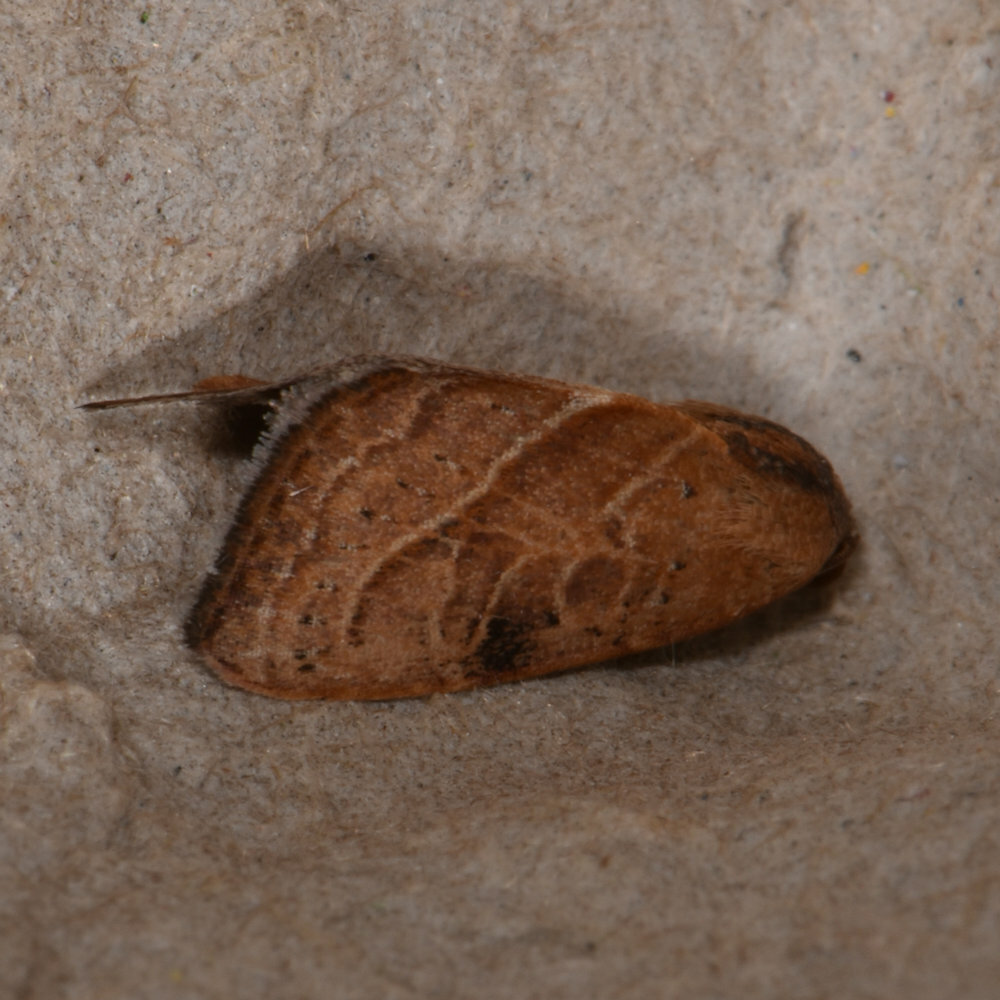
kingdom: Animalia
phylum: Arthropoda
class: Insecta
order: Lepidoptera
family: Noctuidae
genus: Galgula
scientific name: Galgula partita
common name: Wedgeling
